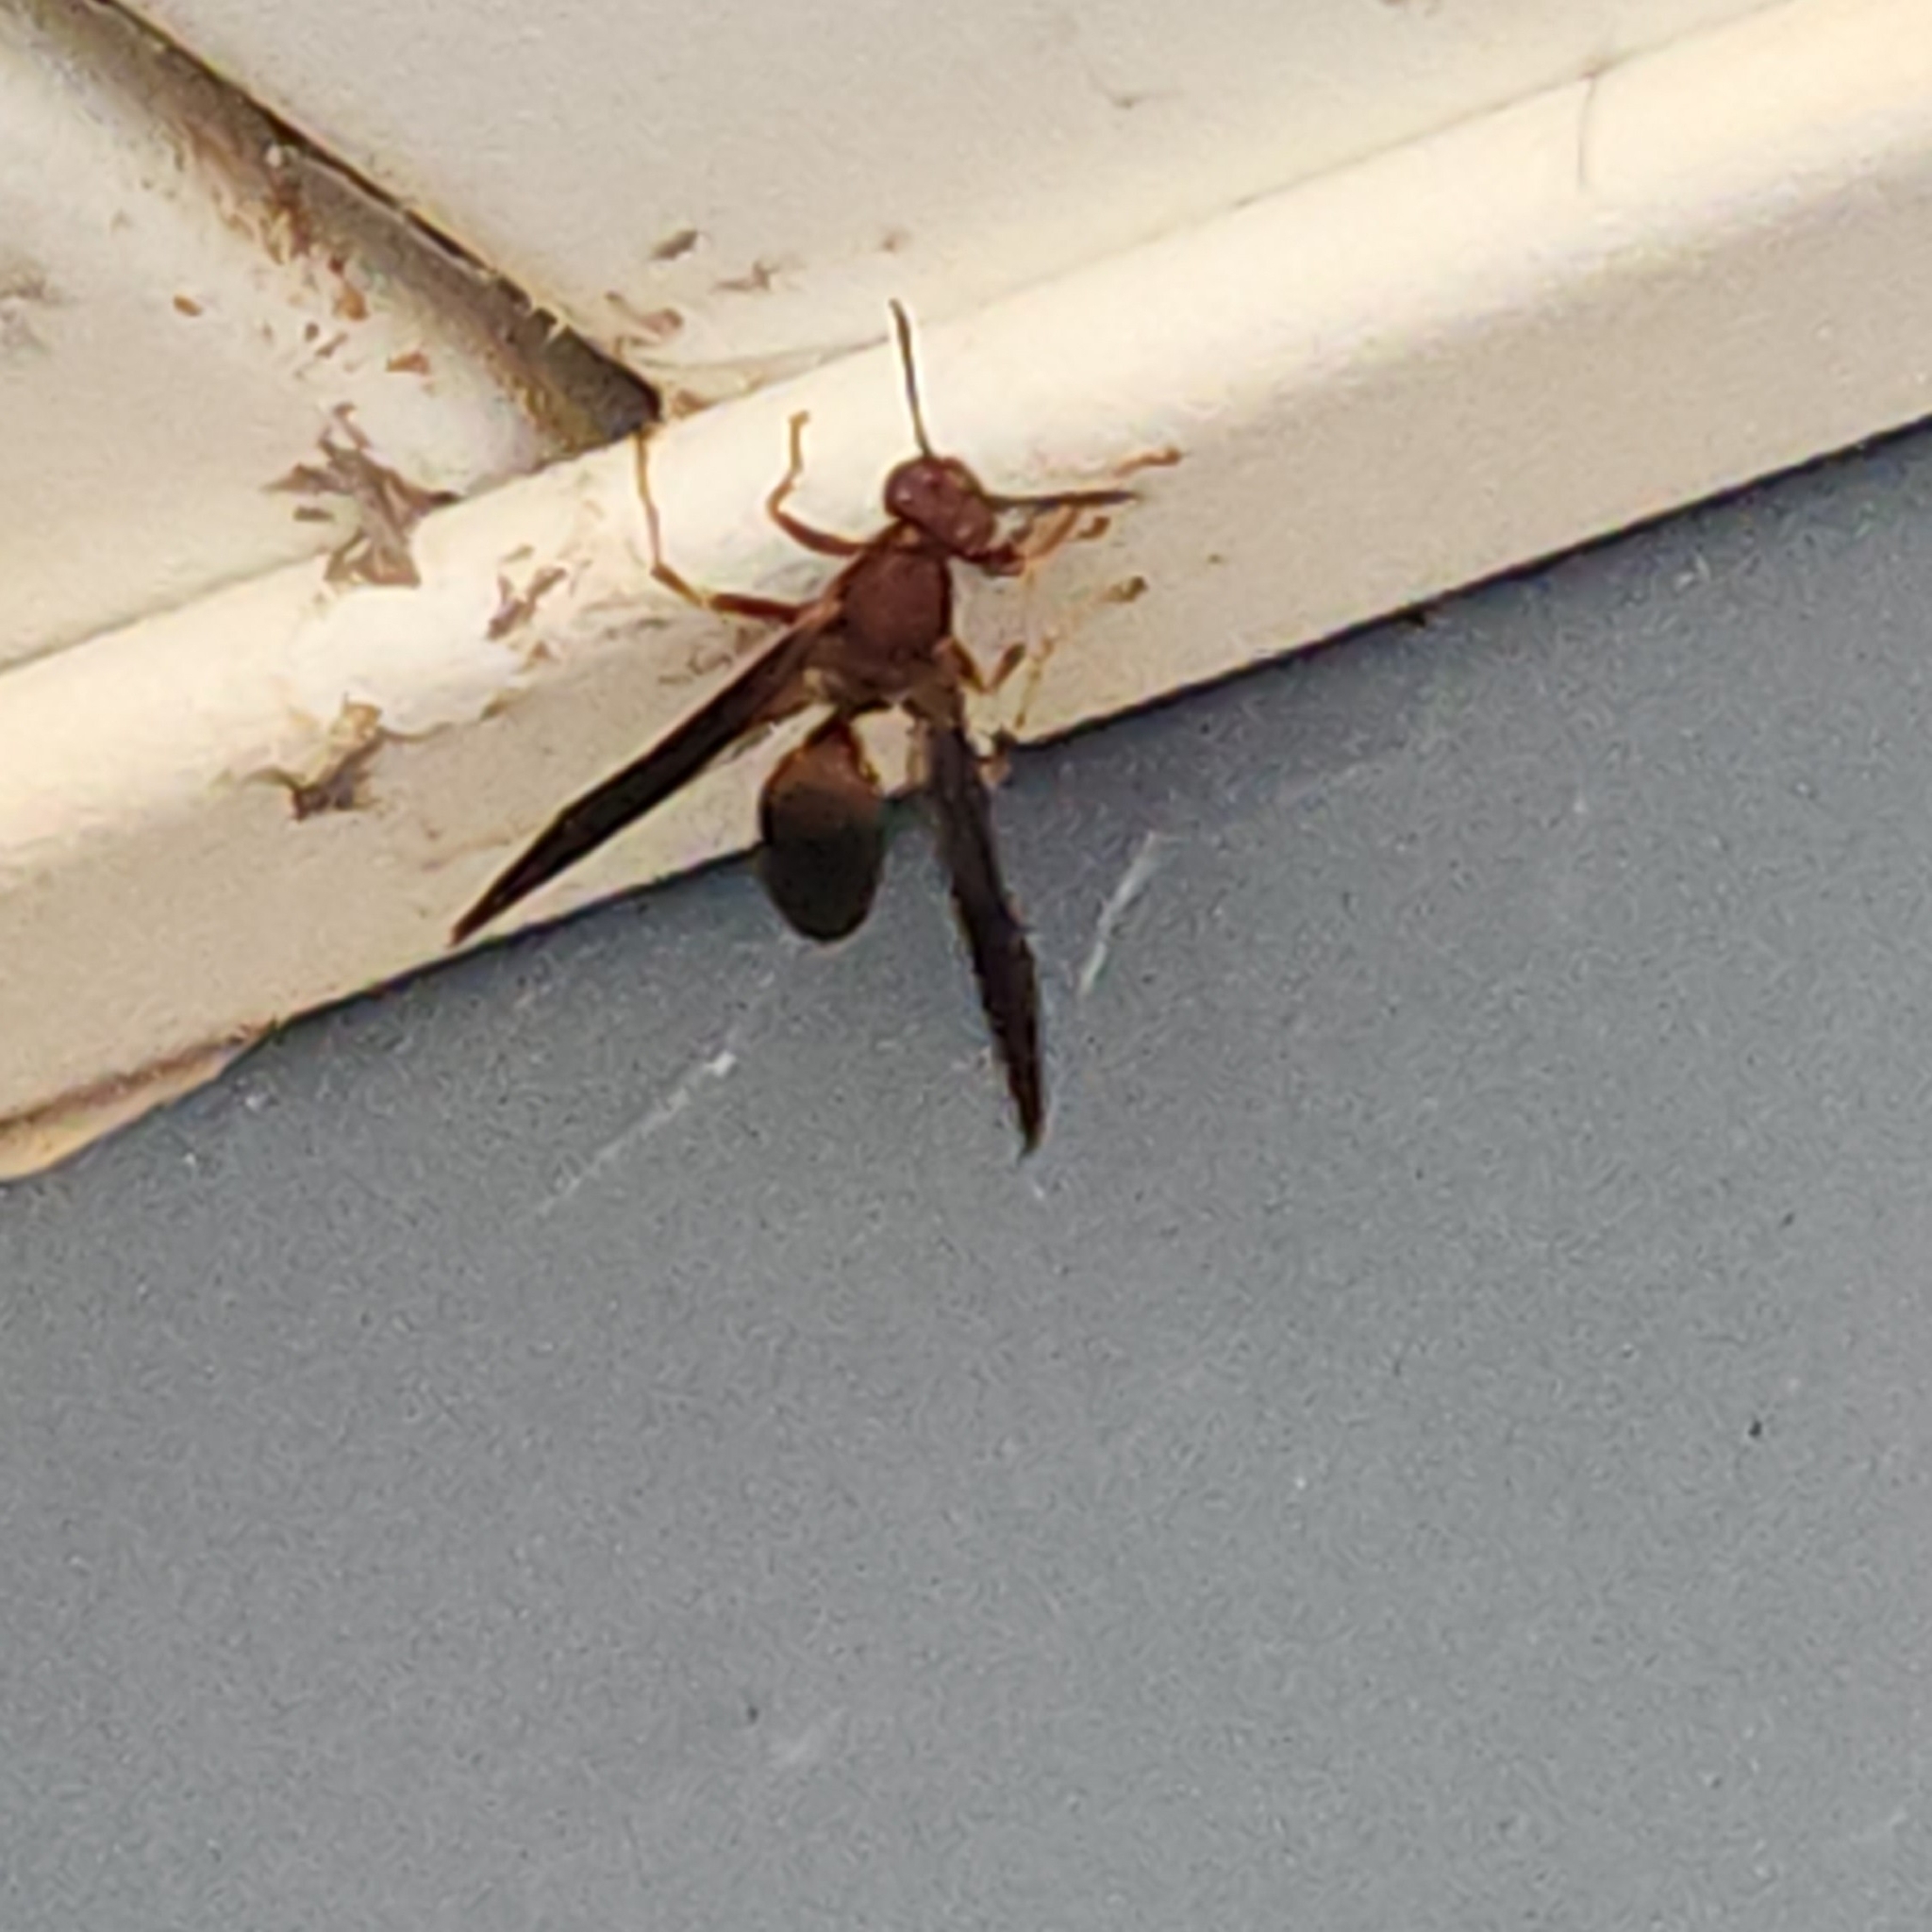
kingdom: Animalia
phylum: Arthropoda
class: Insecta
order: Hymenoptera
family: Eumenidae
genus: Polistes
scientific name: Polistes metricus
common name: Metric paper wasp
